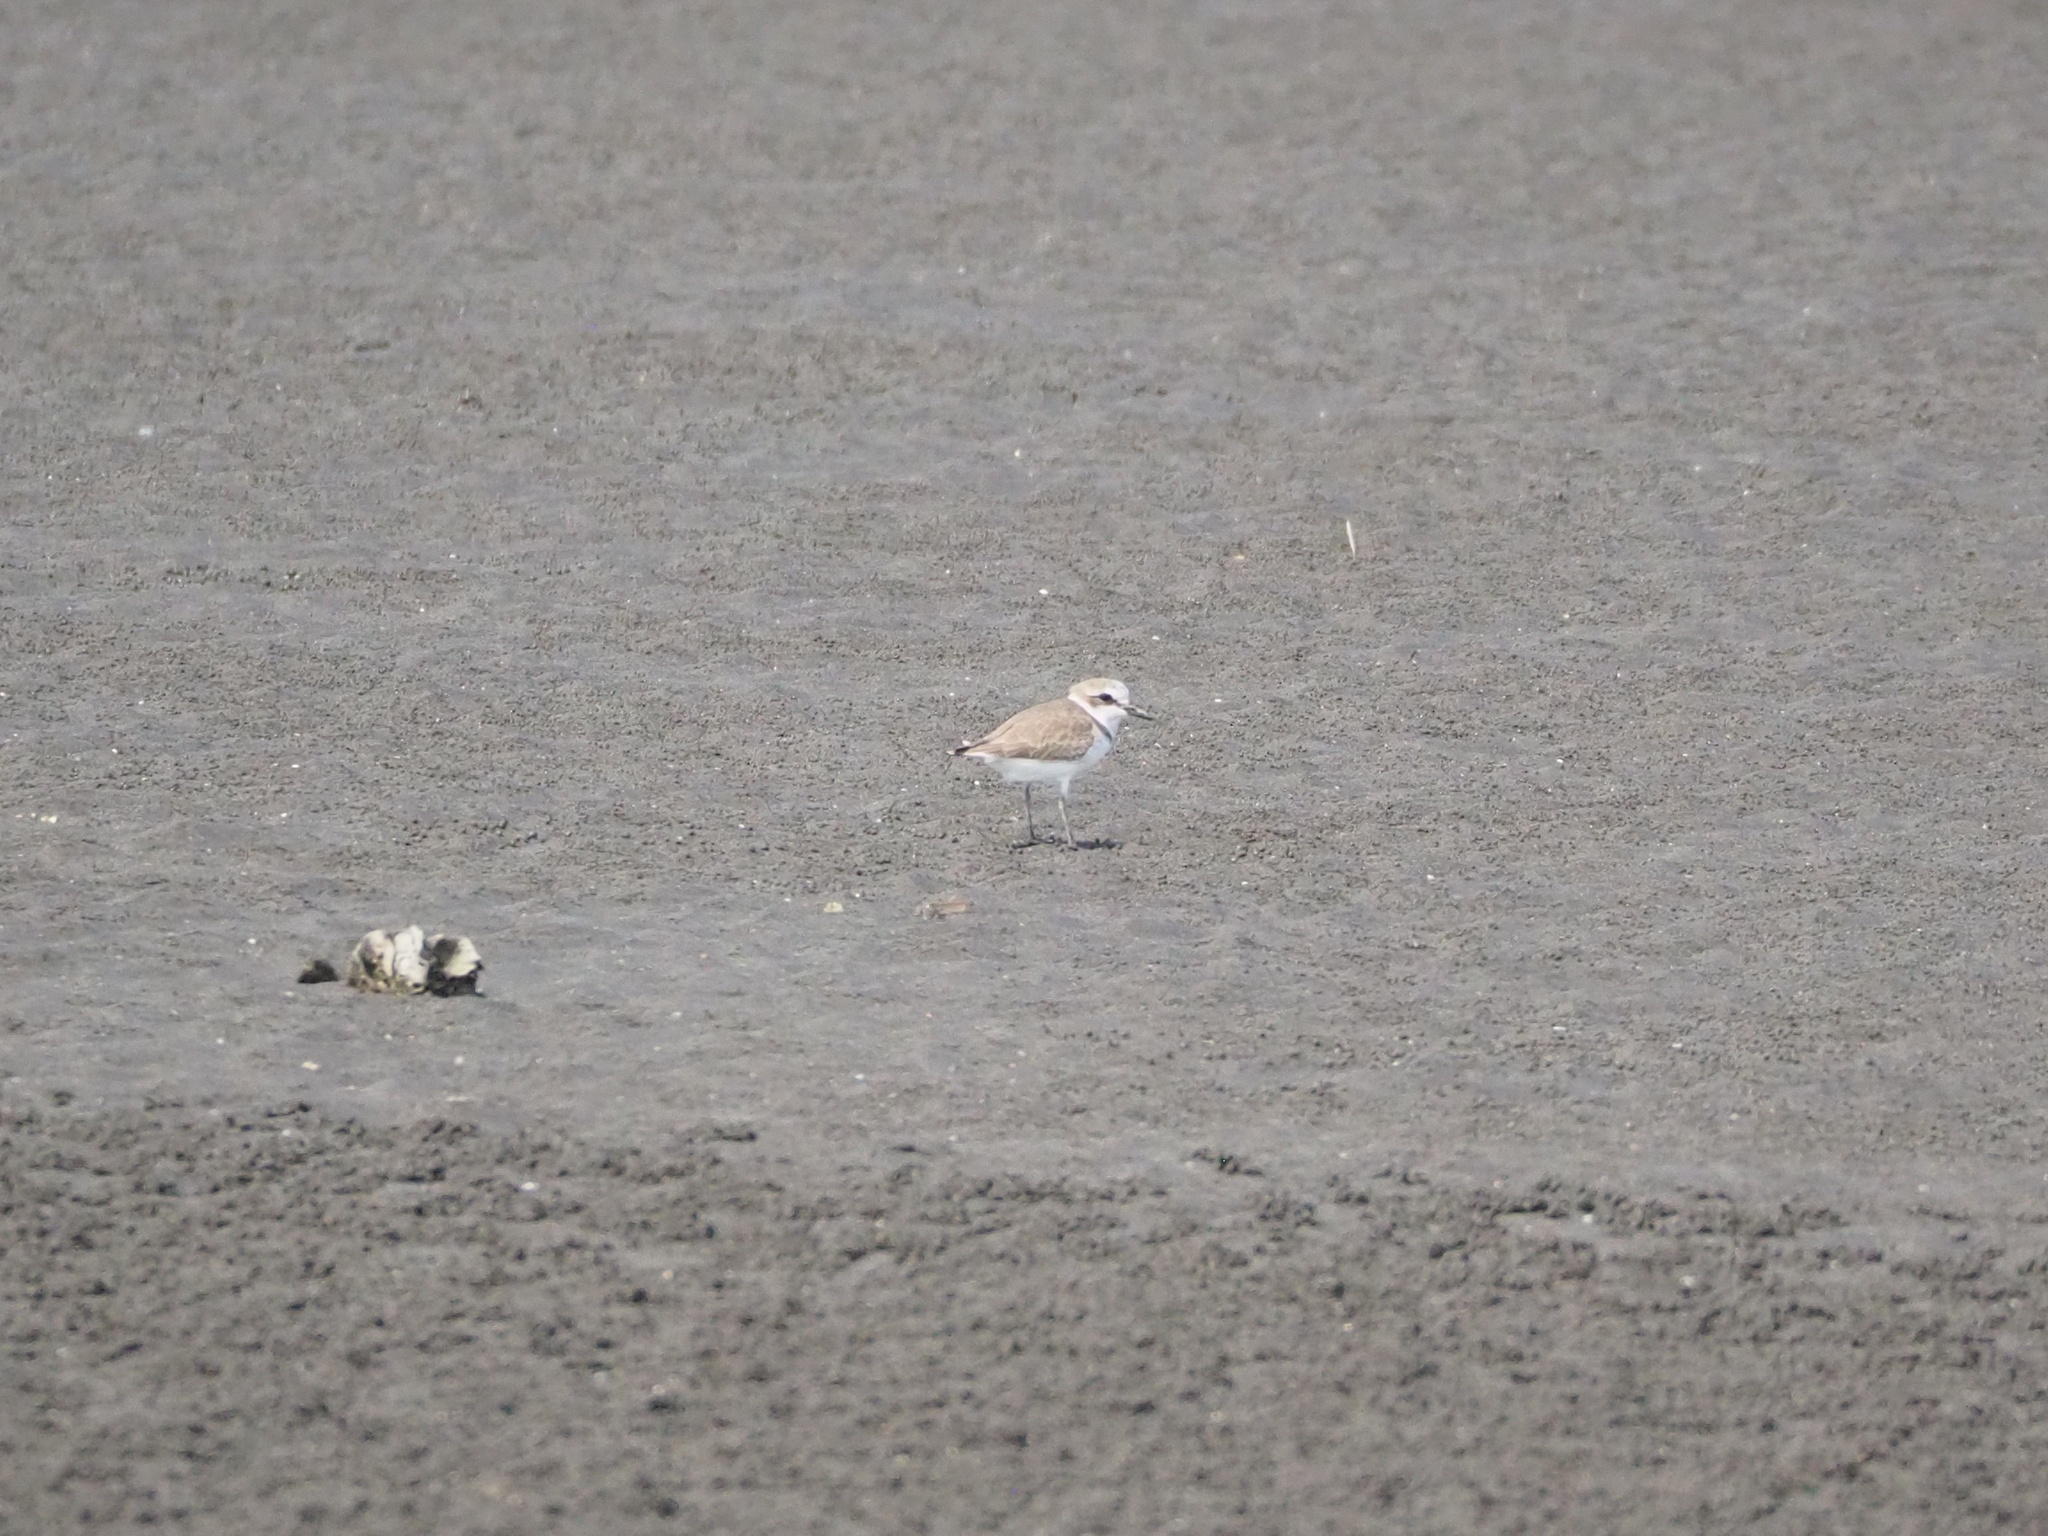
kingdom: Animalia
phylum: Chordata
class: Aves
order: Charadriiformes
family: Charadriidae
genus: Charadrius
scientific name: Charadrius alexandrinus
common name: Kentish plover
